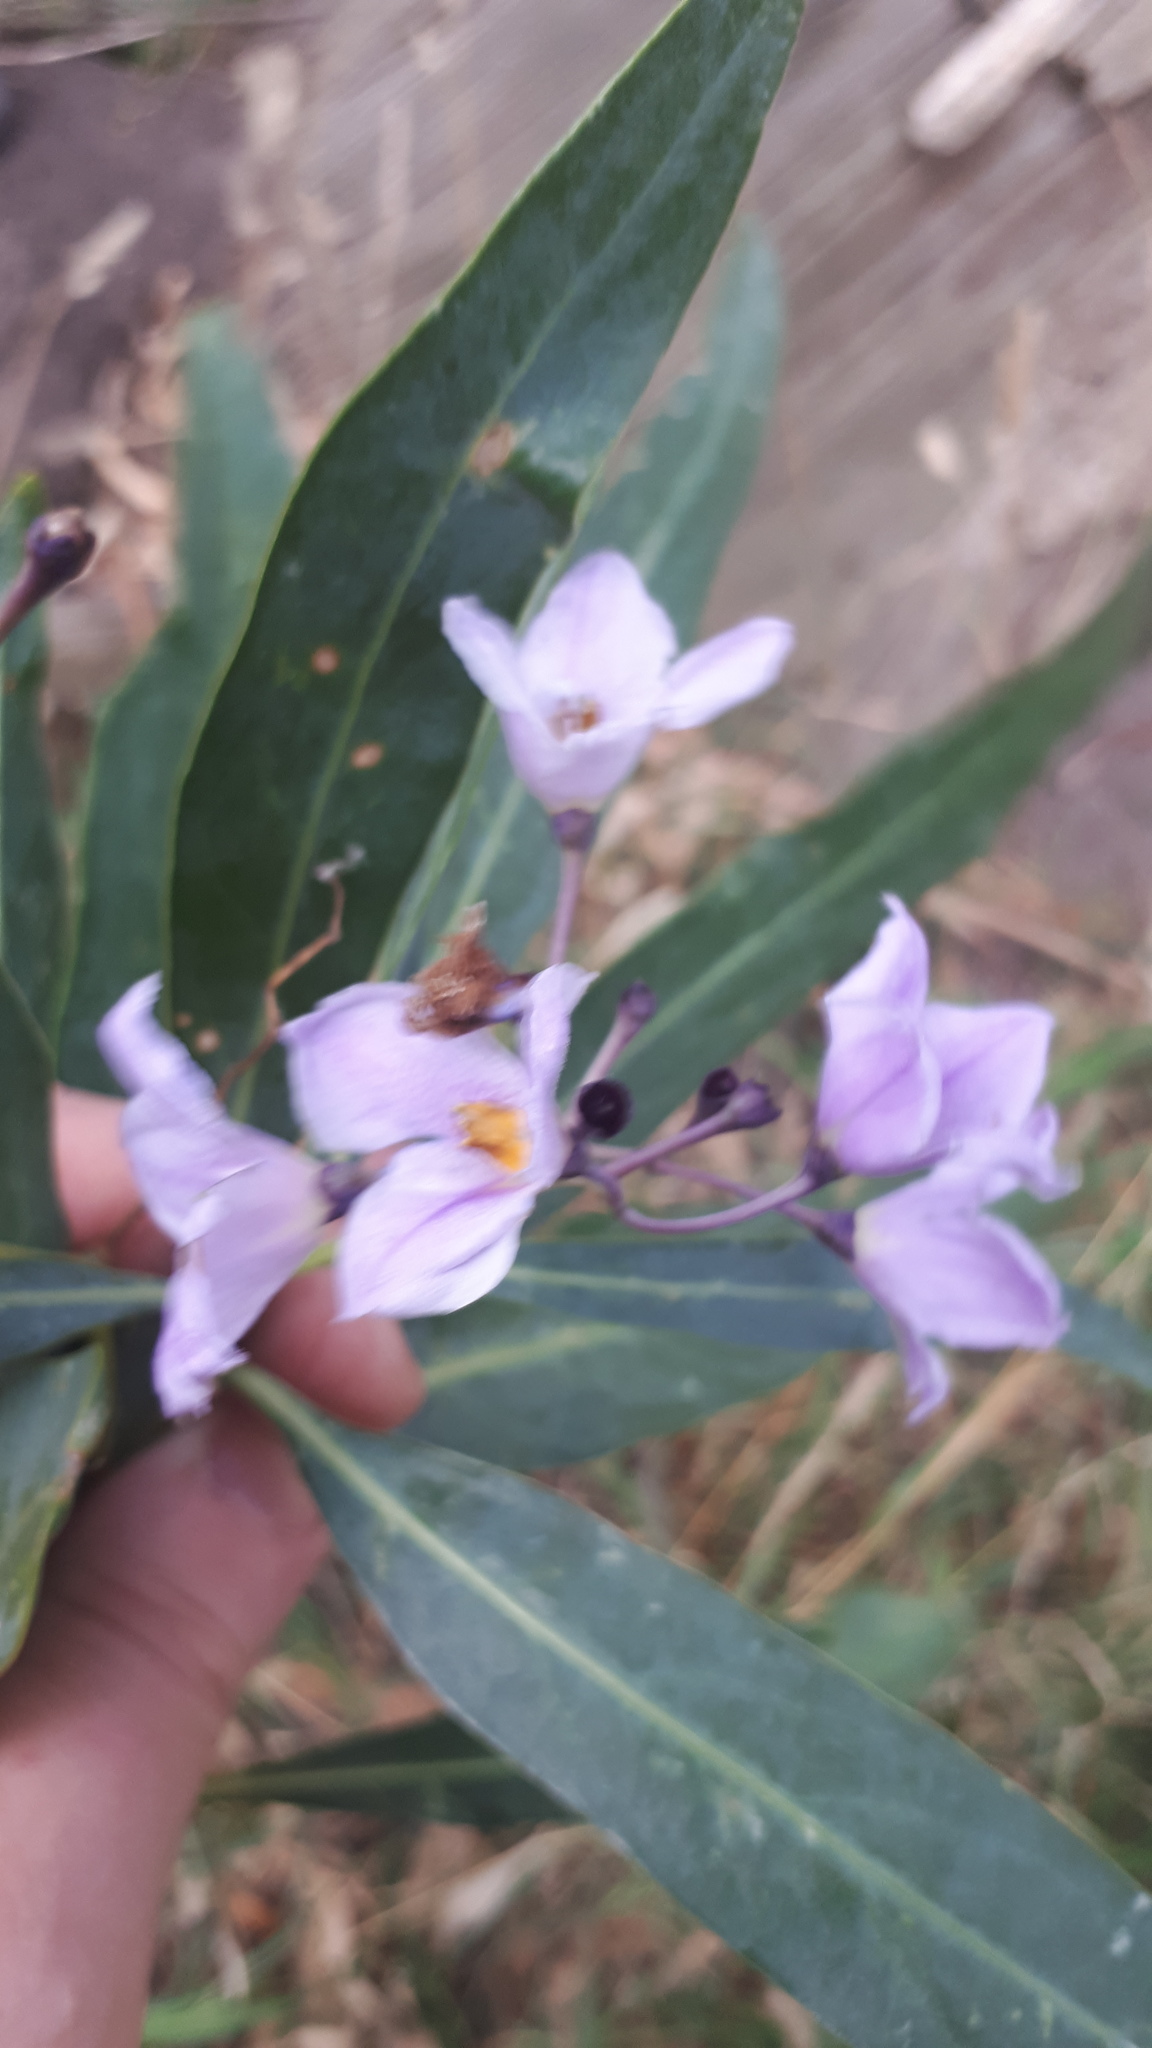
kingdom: Plantae
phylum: Tracheophyta
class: Magnoliopsida
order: Solanales
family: Solanaceae
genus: Solanum
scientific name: Solanum glaucophyllum
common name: Waxyleaf nightshade
